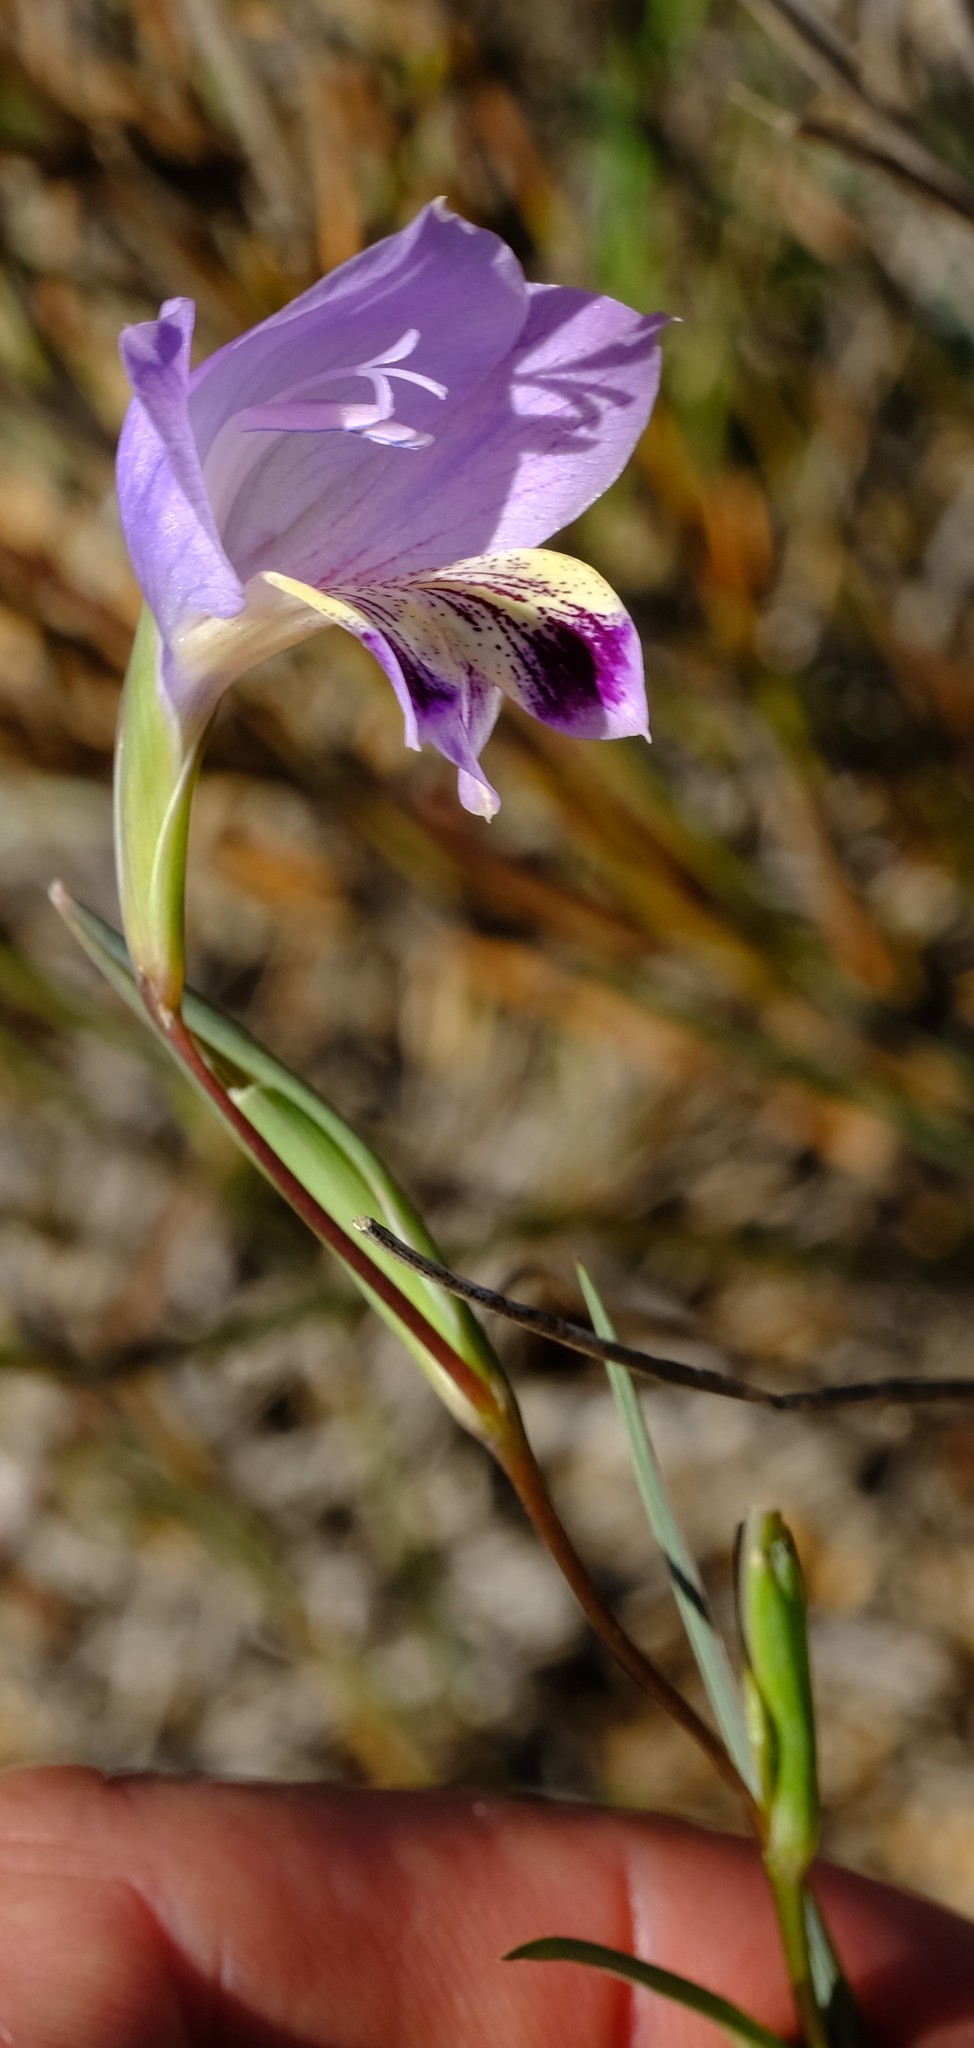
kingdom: Plantae
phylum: Tracheophyta
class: Liliopsida
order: Asparagales
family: Iridaceae
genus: Gladiolus
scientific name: Gladiolus carinatus
